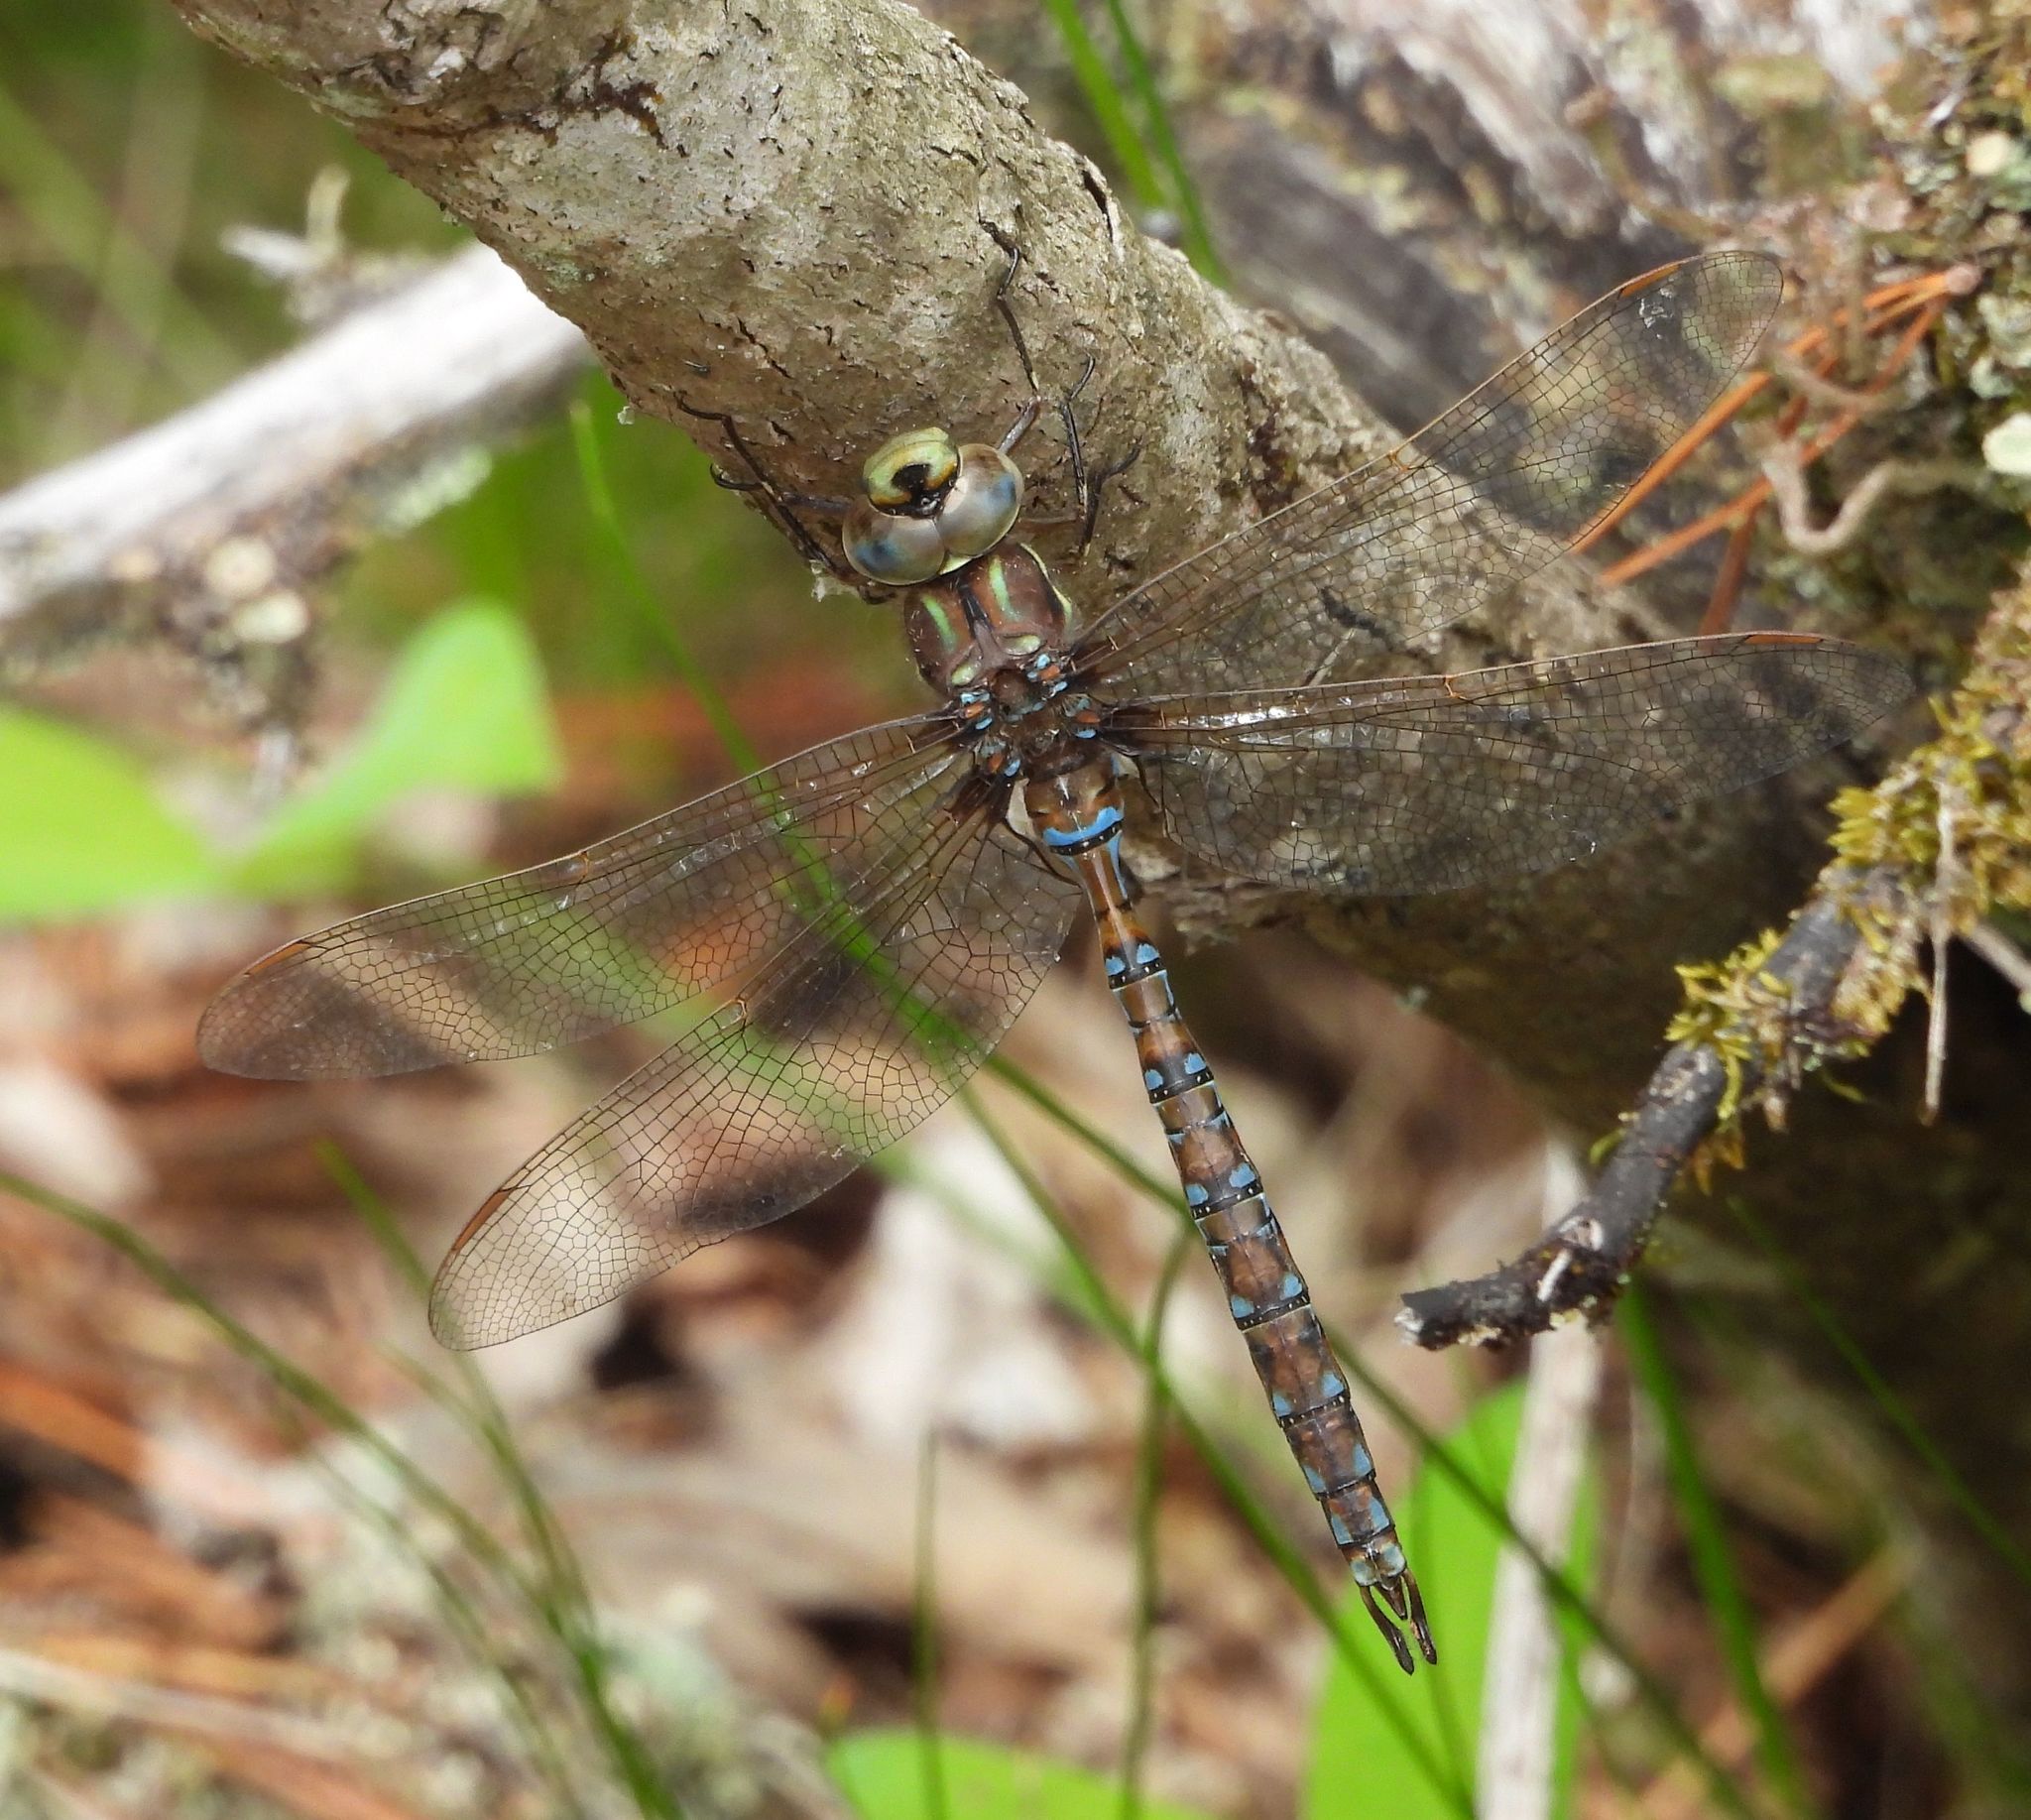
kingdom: Animalia
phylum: Arthropoda
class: Insecta
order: Odonata
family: Aeshnidae
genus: Basiaeschna
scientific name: Basiaeschna janata
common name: Springtime darner
